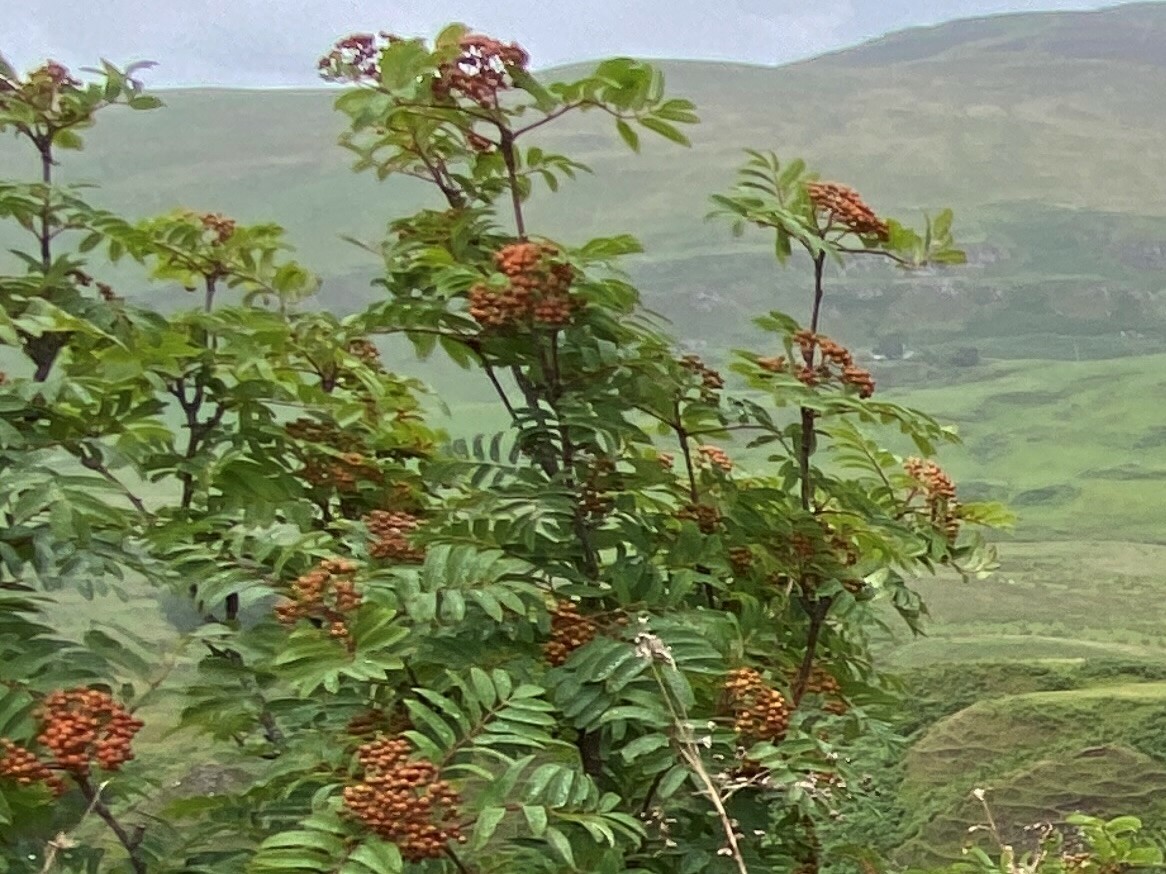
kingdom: Plantae
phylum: Tracheophyta
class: Magnoliopsida
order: Rosales
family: Rosaceae
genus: Sorbus
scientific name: Sorbus aucuparia
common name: Rowan
